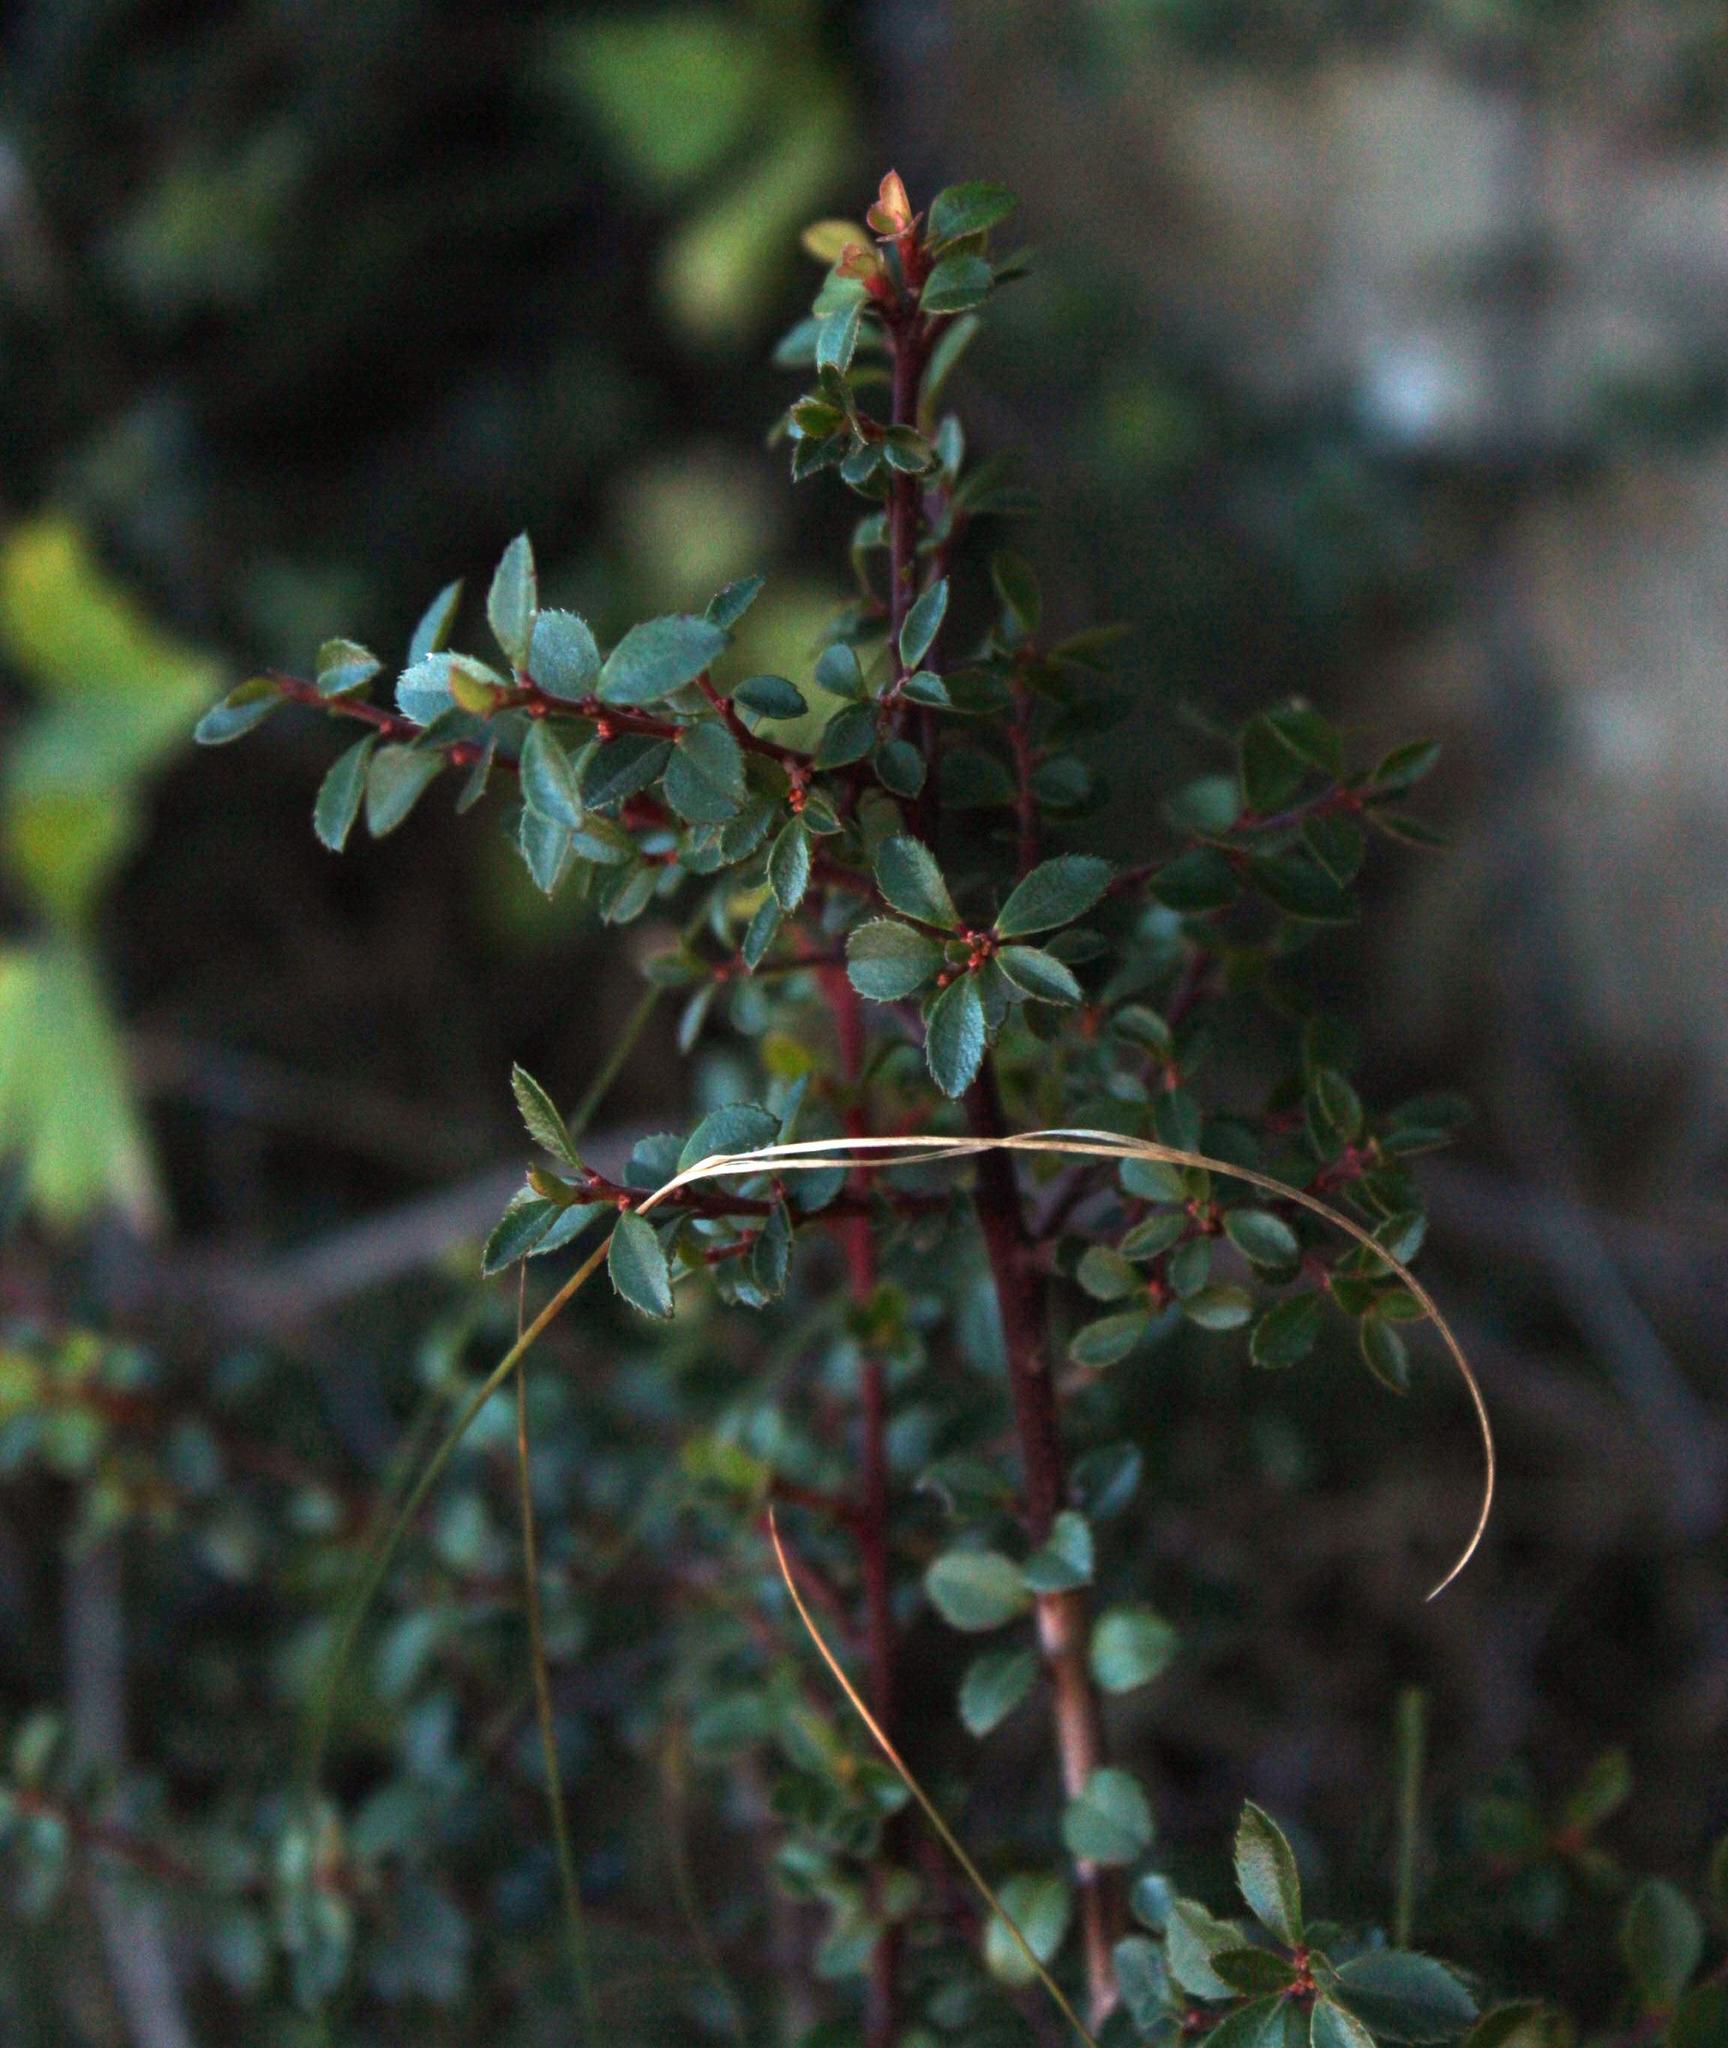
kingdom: Plantae
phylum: Tracheophyta
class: Magnoliopsida
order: Ericales
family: Primulaceae
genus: Myrsine
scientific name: Myrsine africana
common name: African-boxwood
